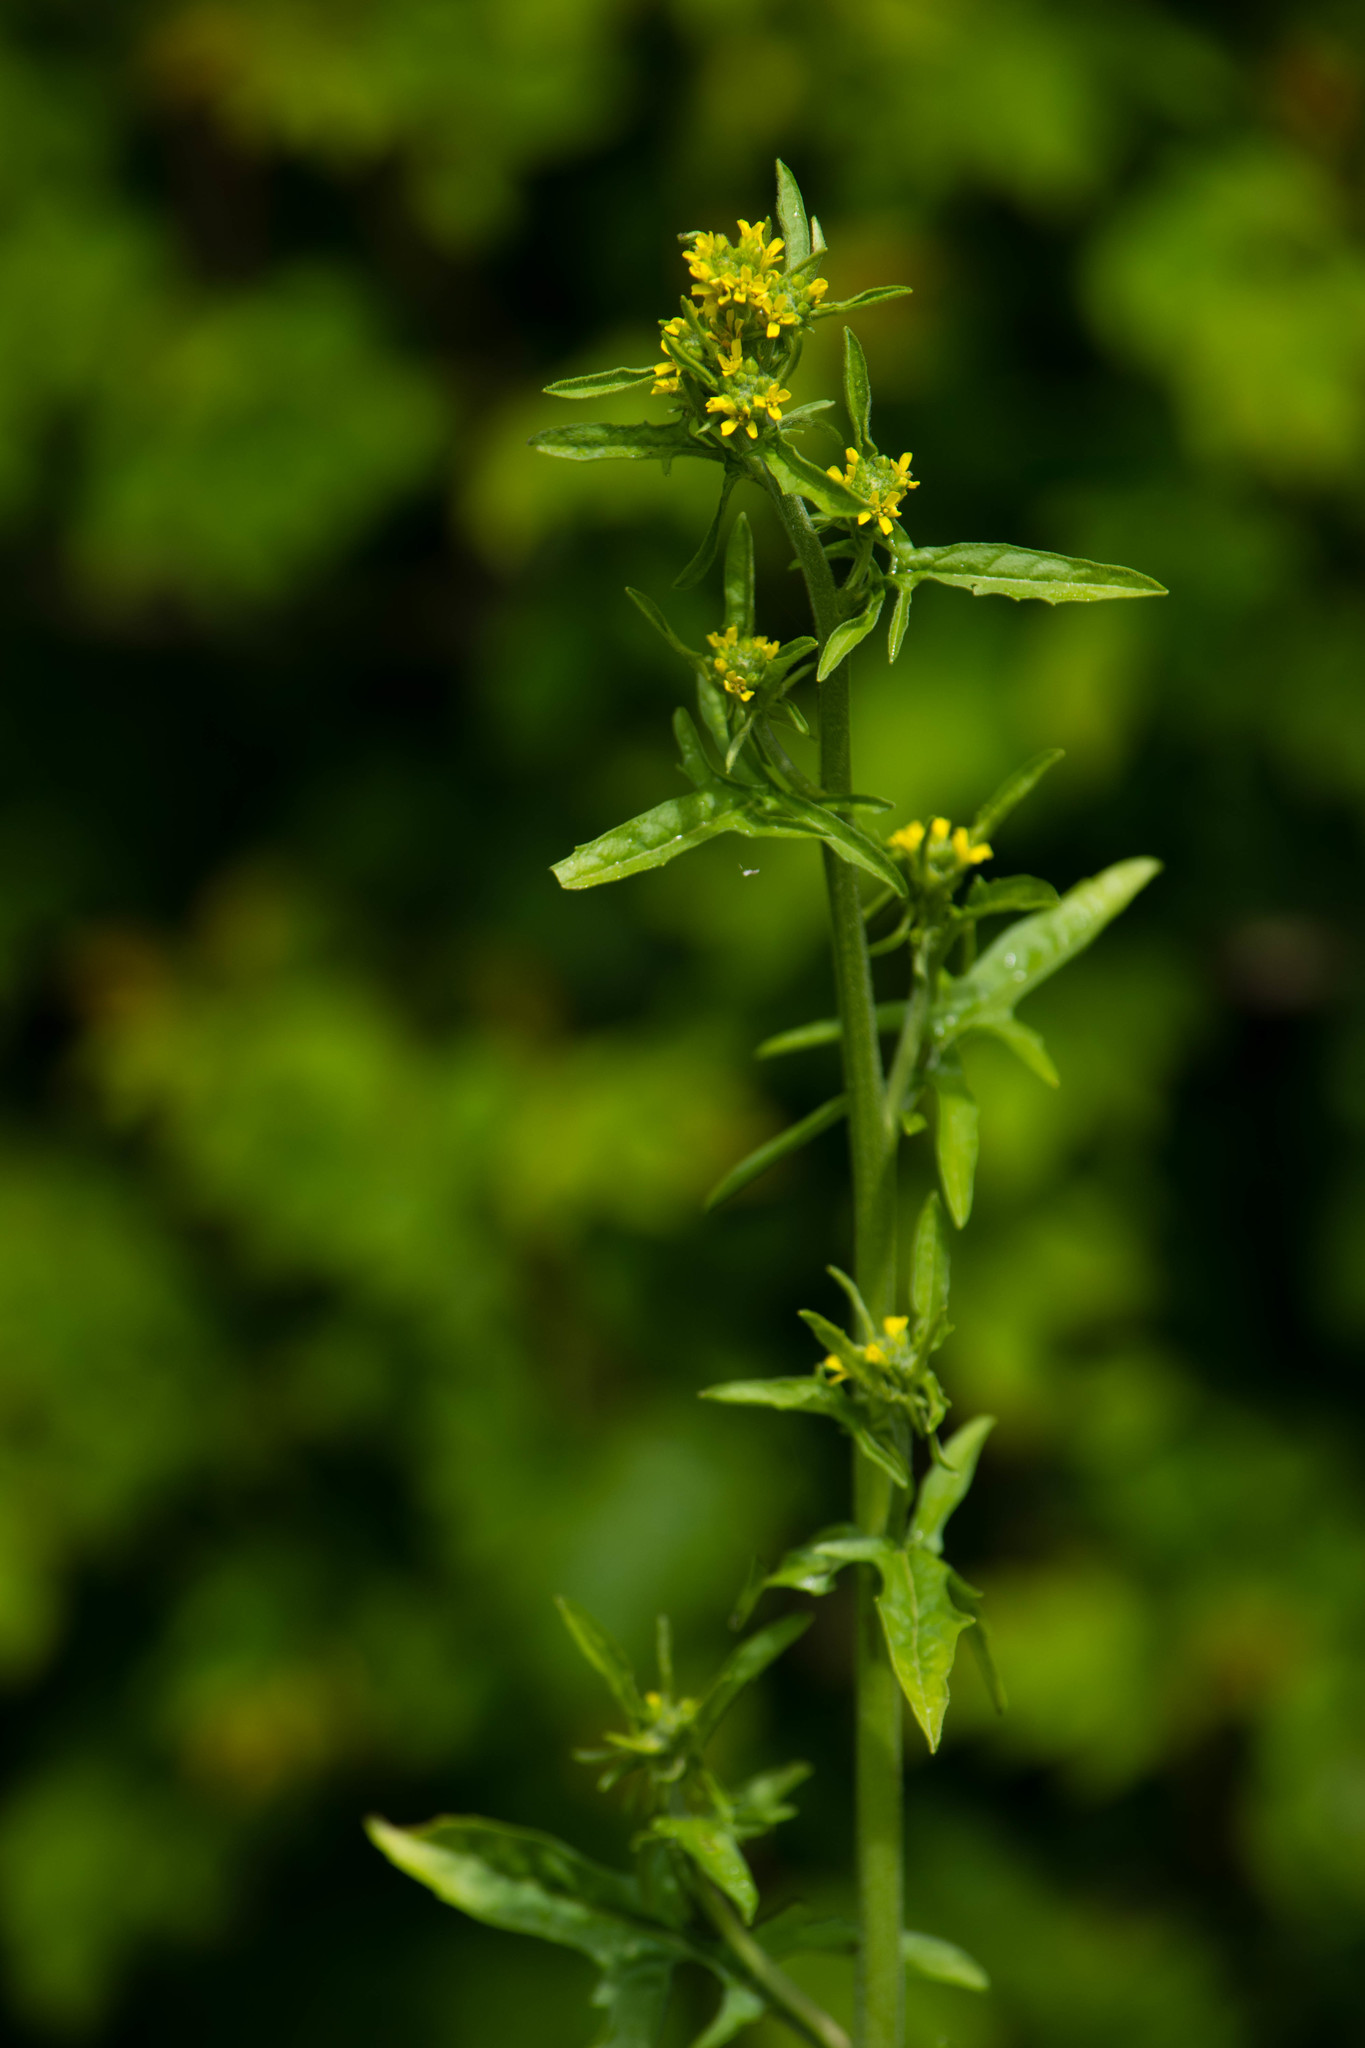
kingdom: Plantae
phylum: Tracheophyta
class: Magnoliopsida
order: Brassicales
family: Brassicaceae
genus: Sisymbrium
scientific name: Sisymbrium officinale
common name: Hedge mustard
